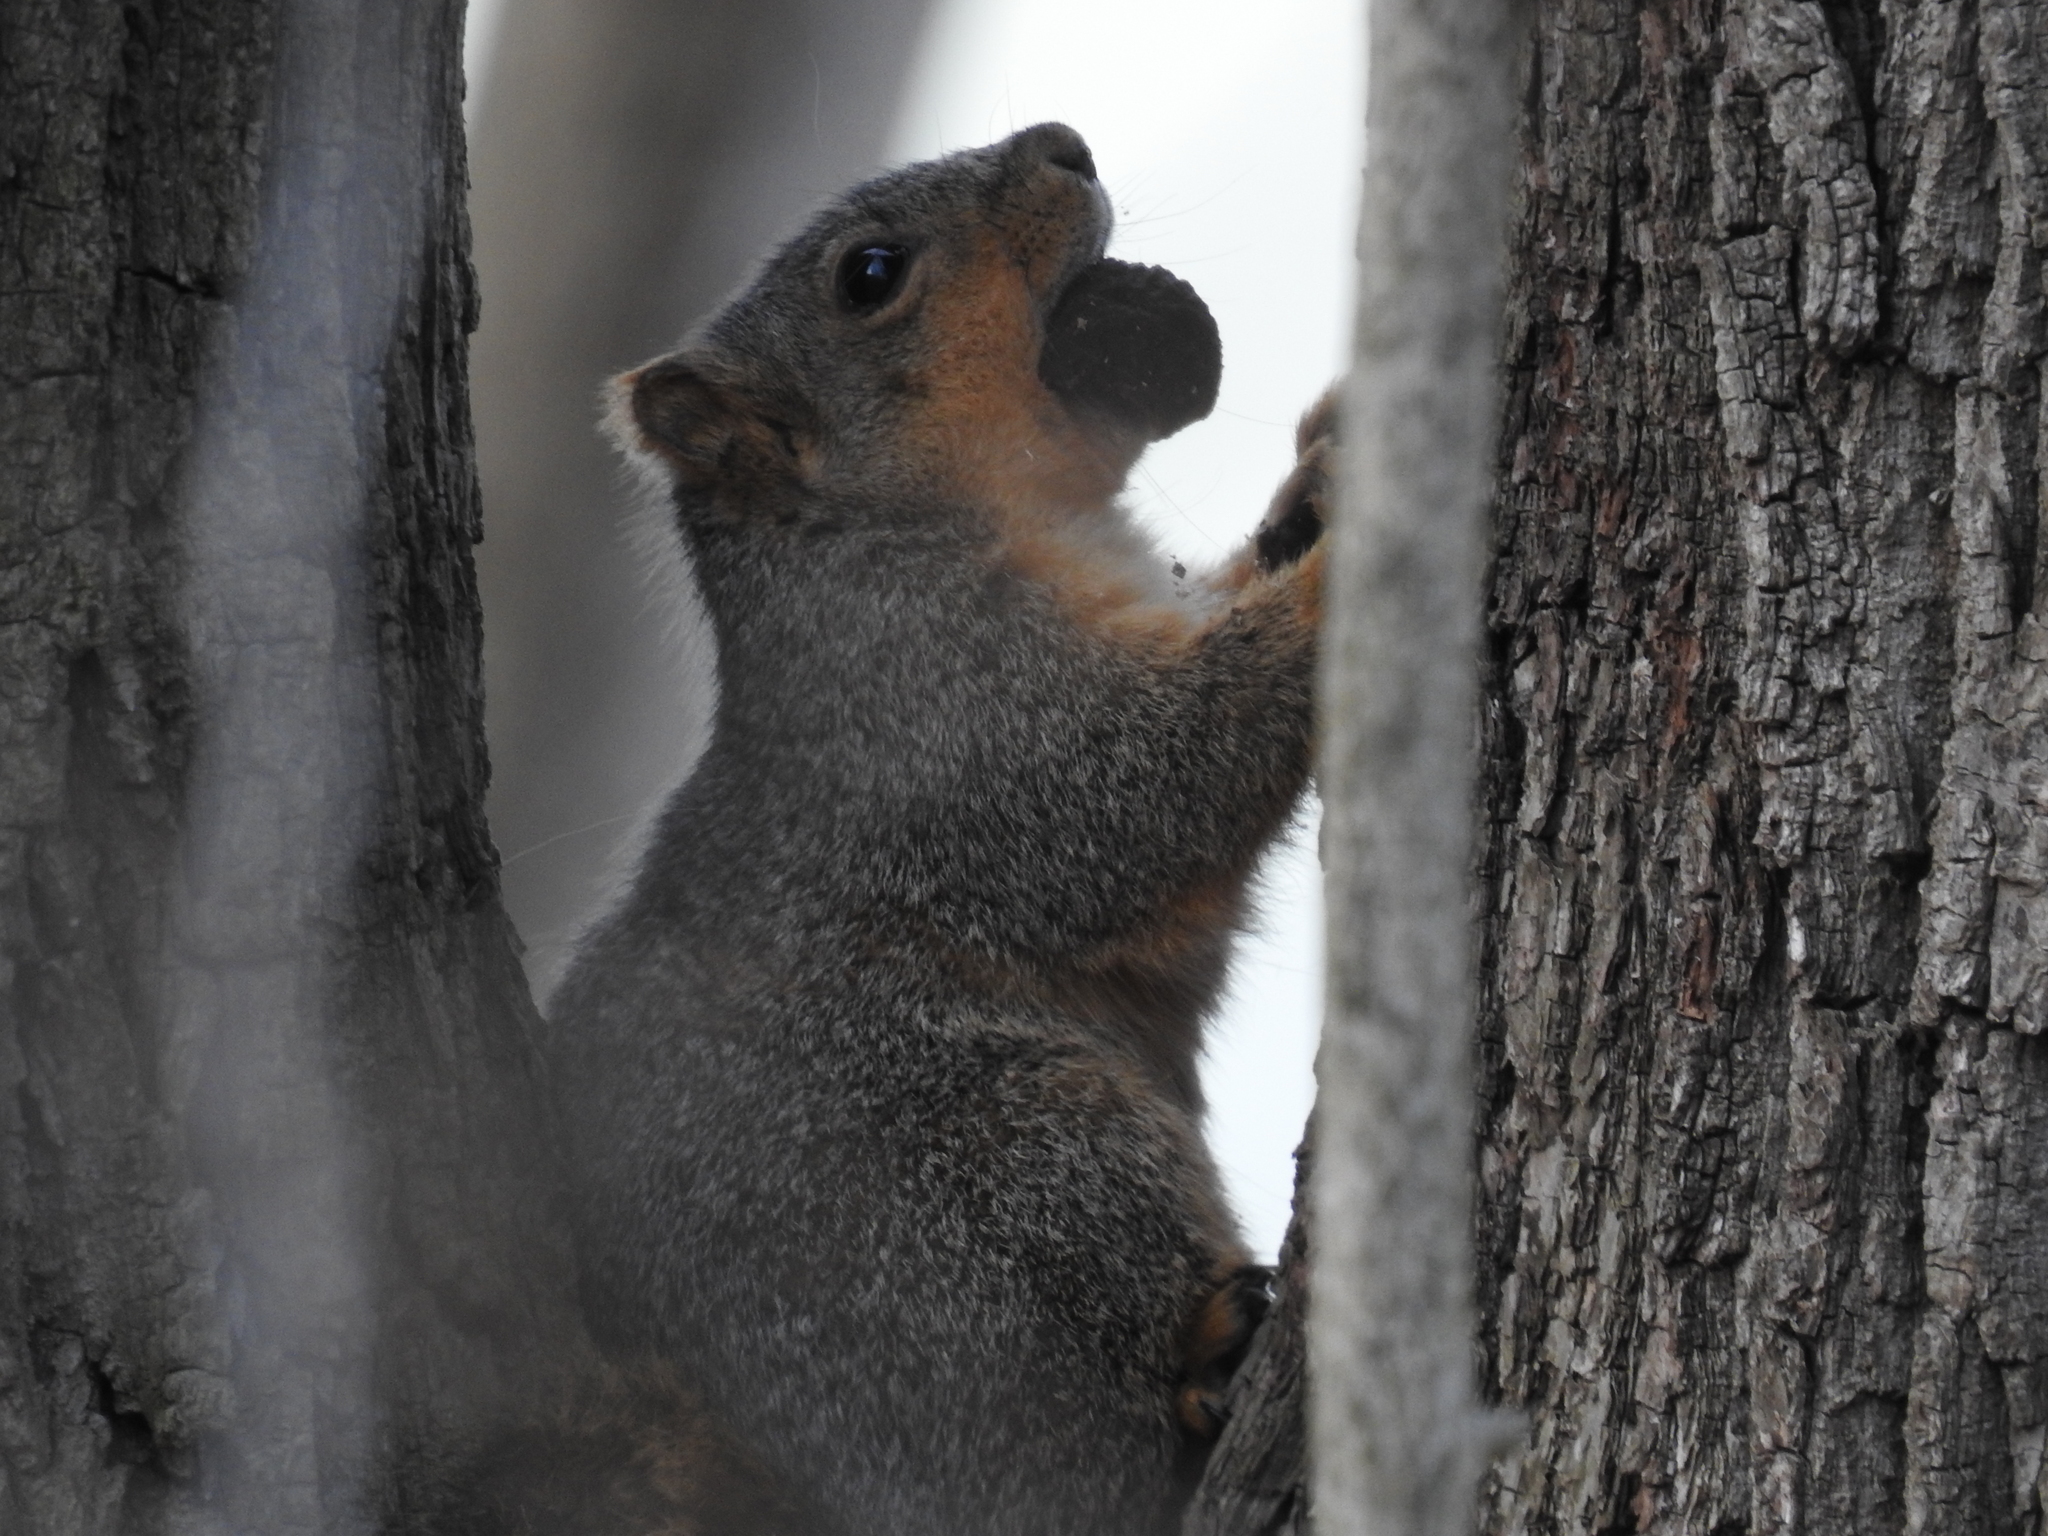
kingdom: Animalia
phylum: Chordata
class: Mammalia
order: Rodentia
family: Sciuridae
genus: Sciurus
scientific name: Sciurus niger
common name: Fox squirrel
